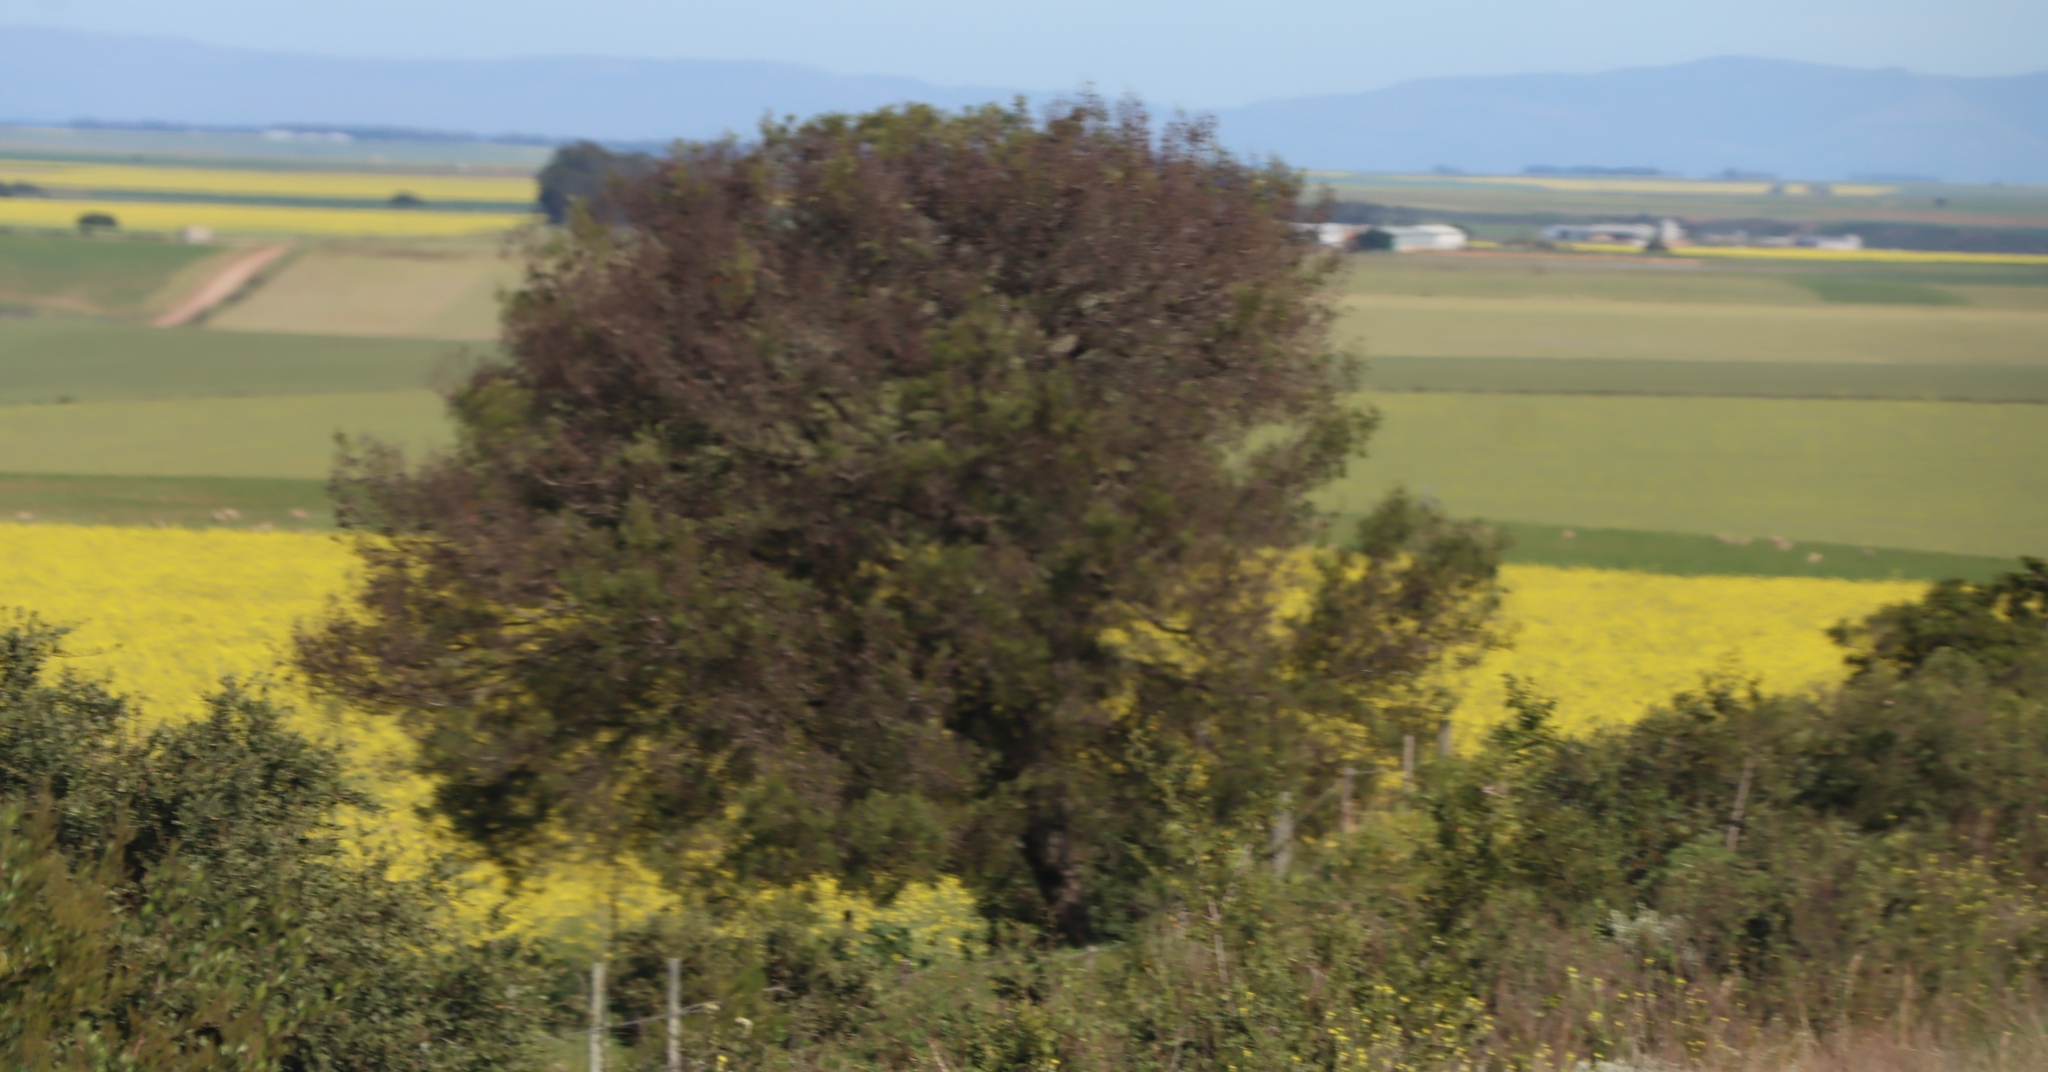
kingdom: Plantae
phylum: Tracheophyta
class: Magnoliopsida
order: Fabales
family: Fabaceae
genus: Vachellia
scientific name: Vachellia karroo
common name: Sweet thorn
